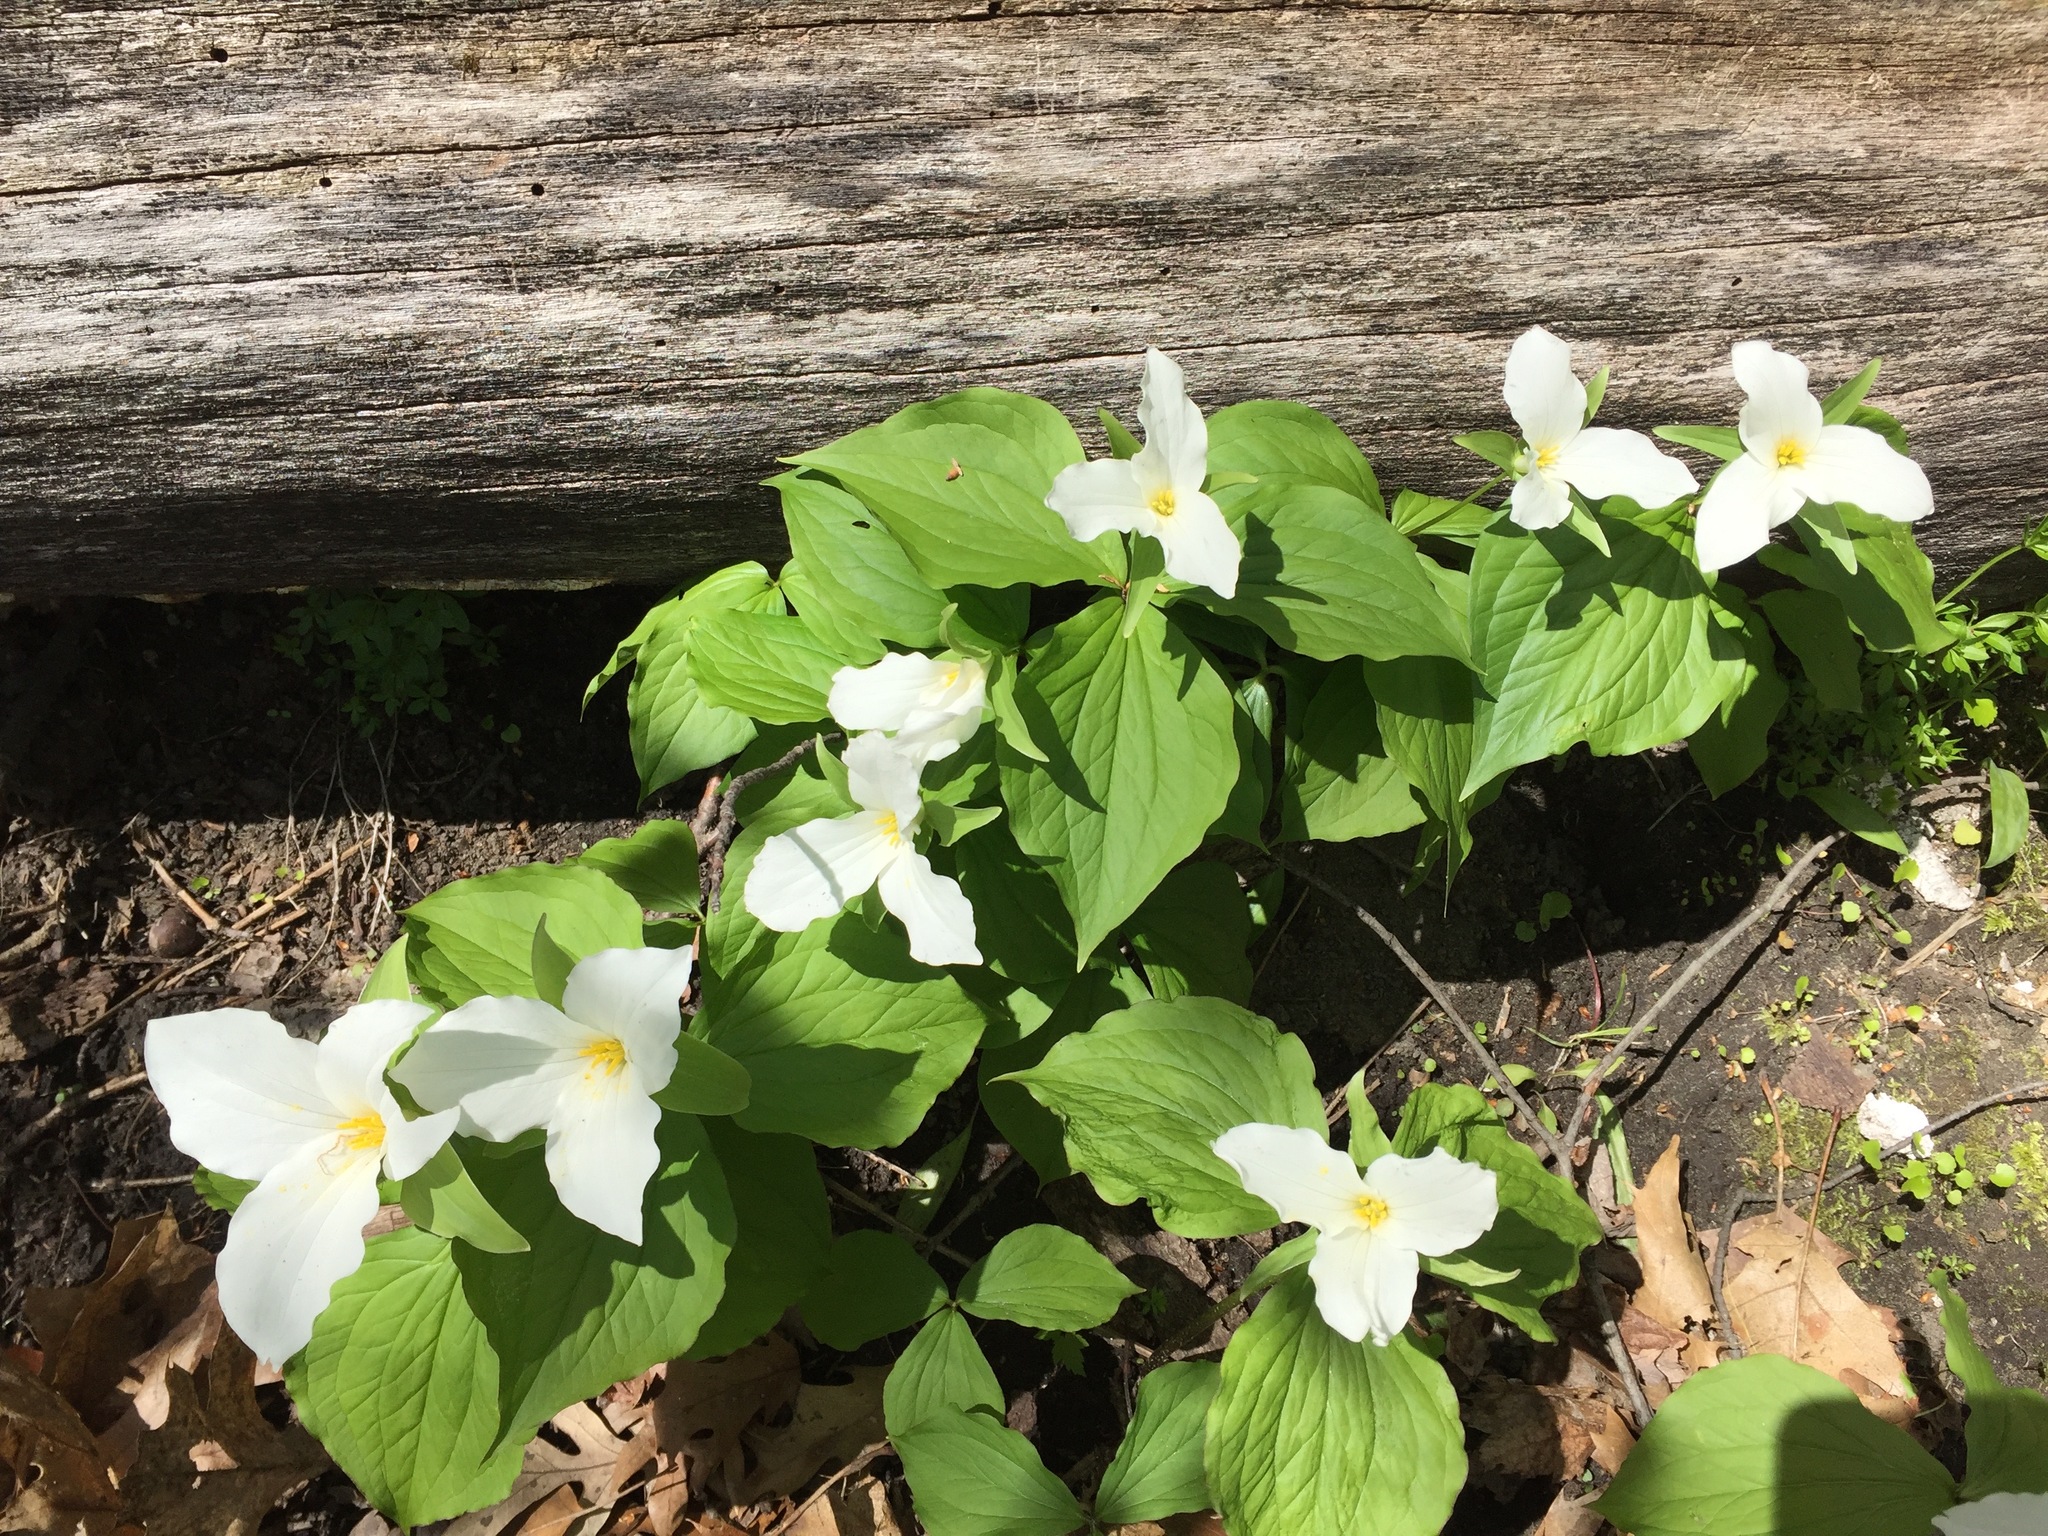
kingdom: Plantae
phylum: Tracheophyta
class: Liliopsida
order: Liliales
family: Melanthiaceae
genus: Trillium
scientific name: Trillium grandiflorum
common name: Great white trillium
